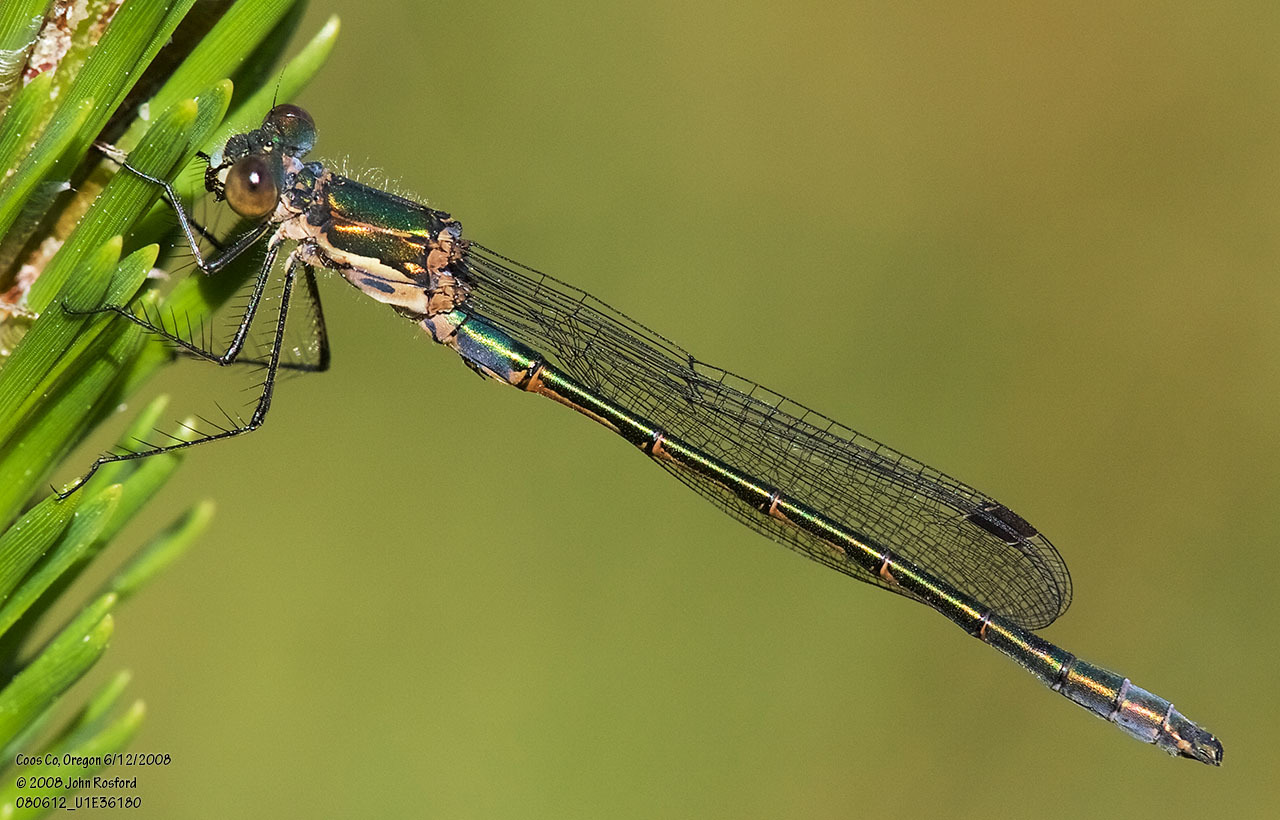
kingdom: Animalia
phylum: Arthropoda
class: Insecta
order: Odonata
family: Lestidae
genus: Lestes
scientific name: Lestes dryas
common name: Scarce emerald damselfly
